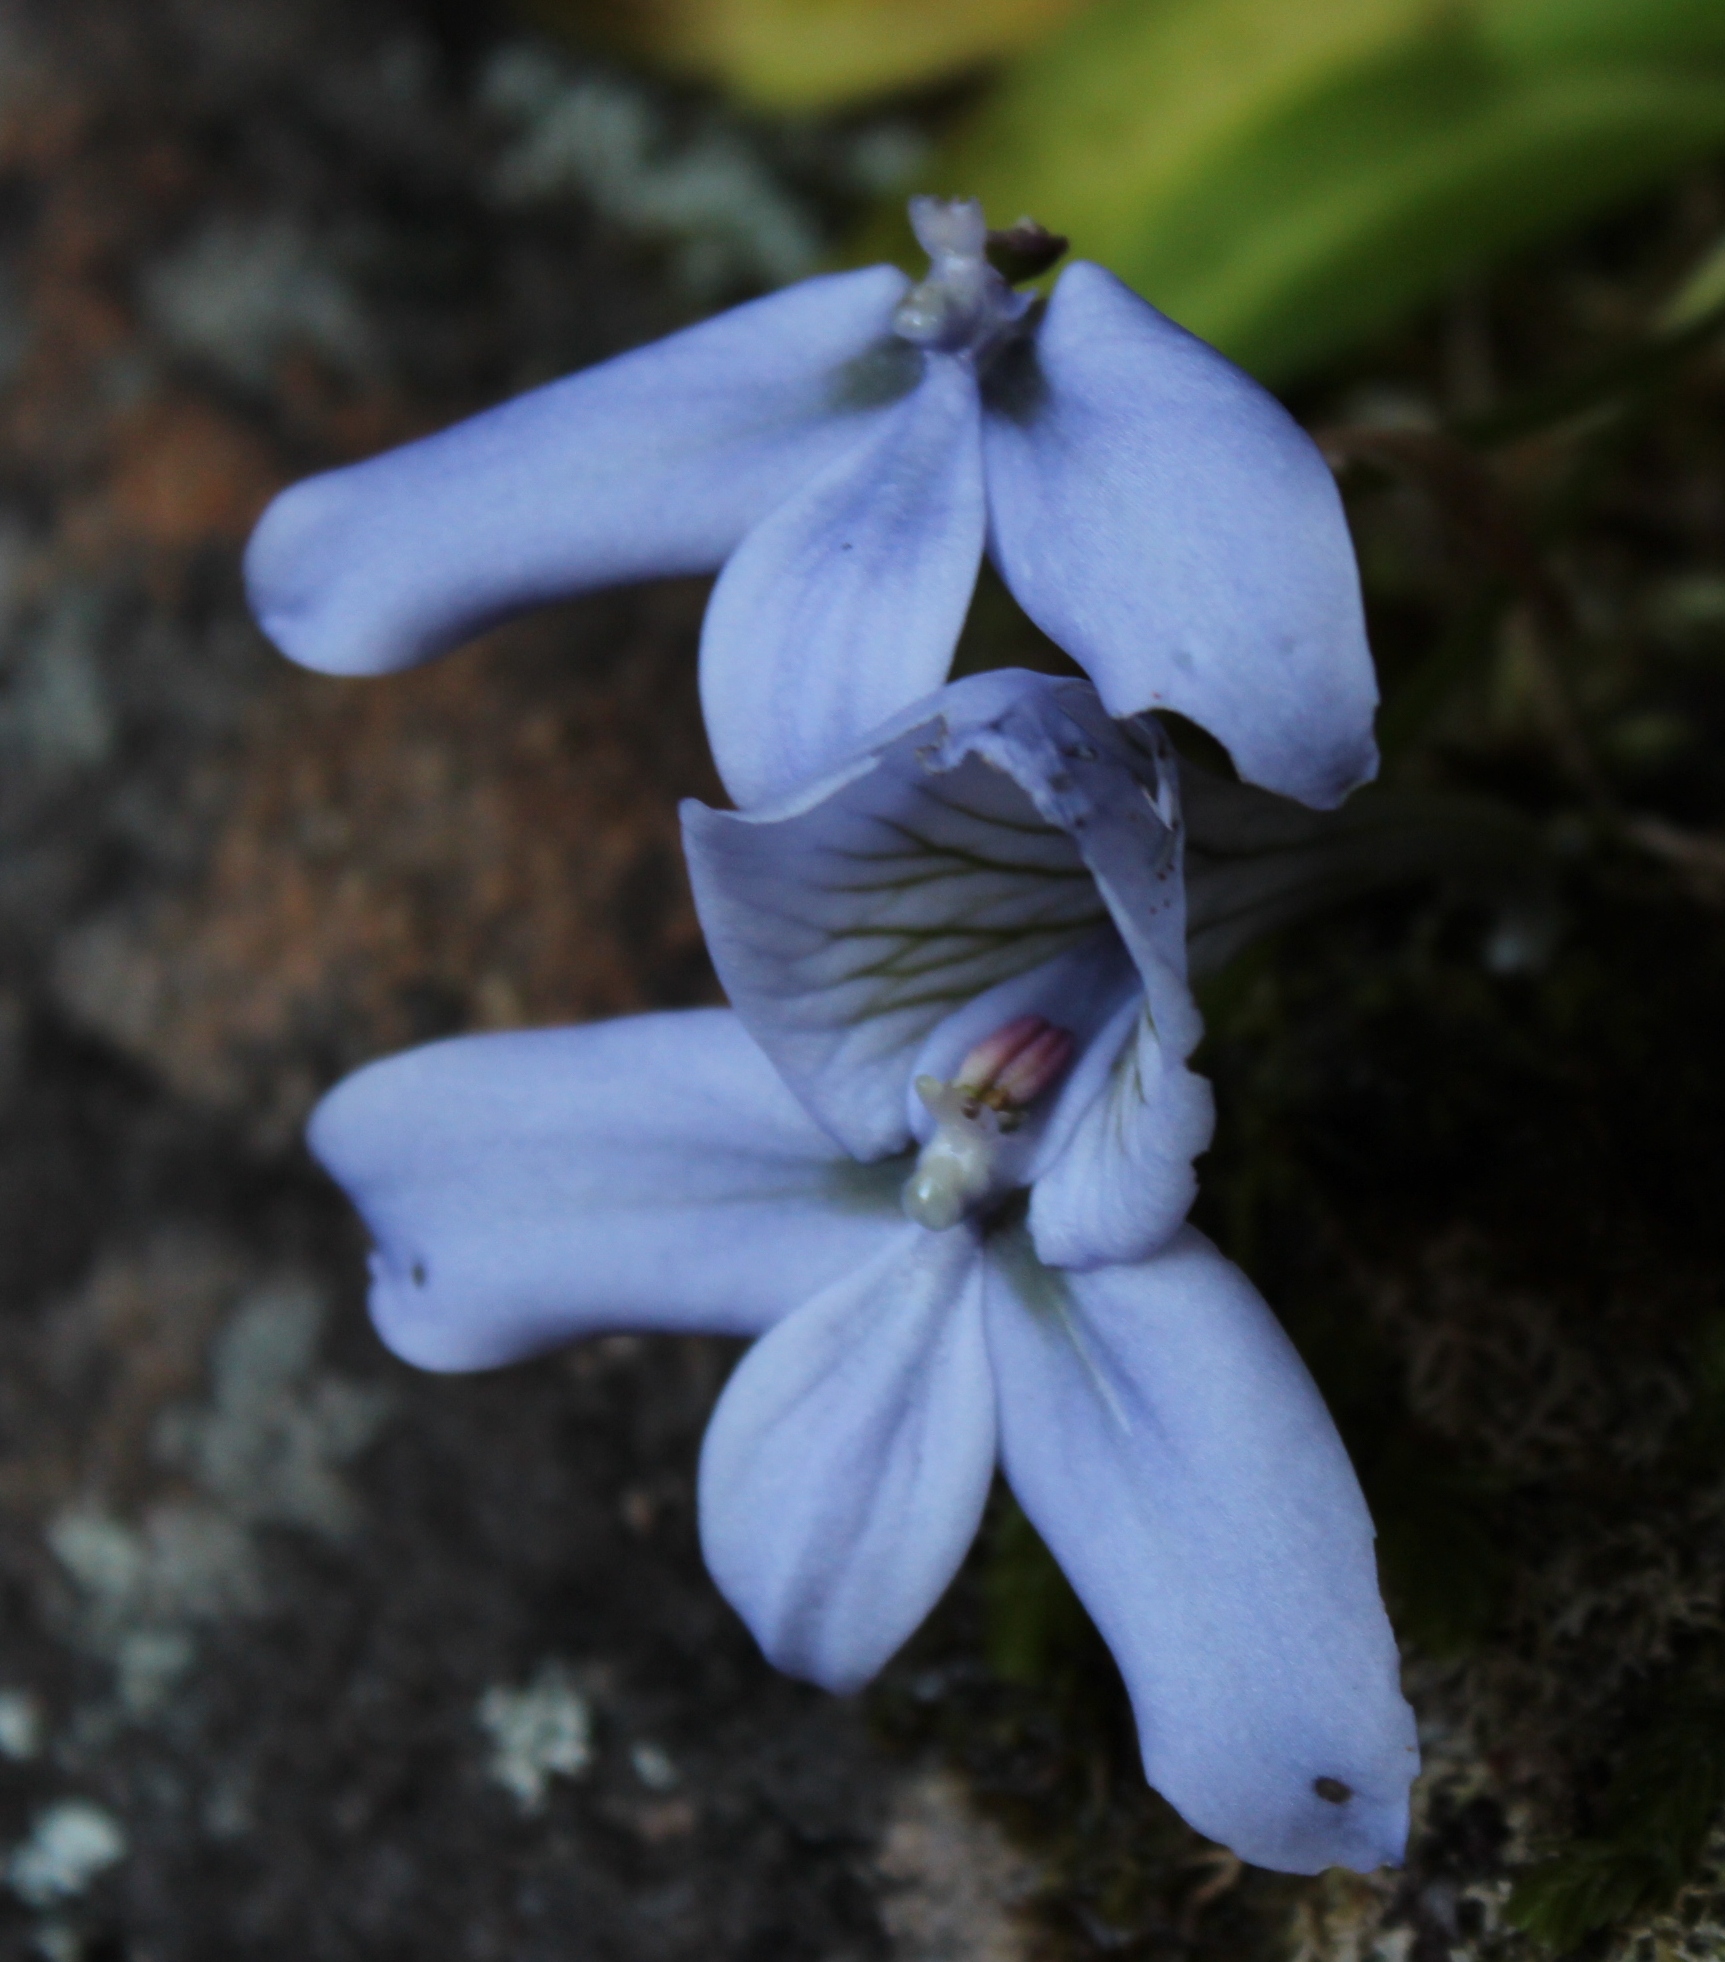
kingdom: Plantae
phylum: Tracheophyta
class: Liliopsida
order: Asparagales
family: Orchidaceae
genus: Disa
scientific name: Disa longicornu
